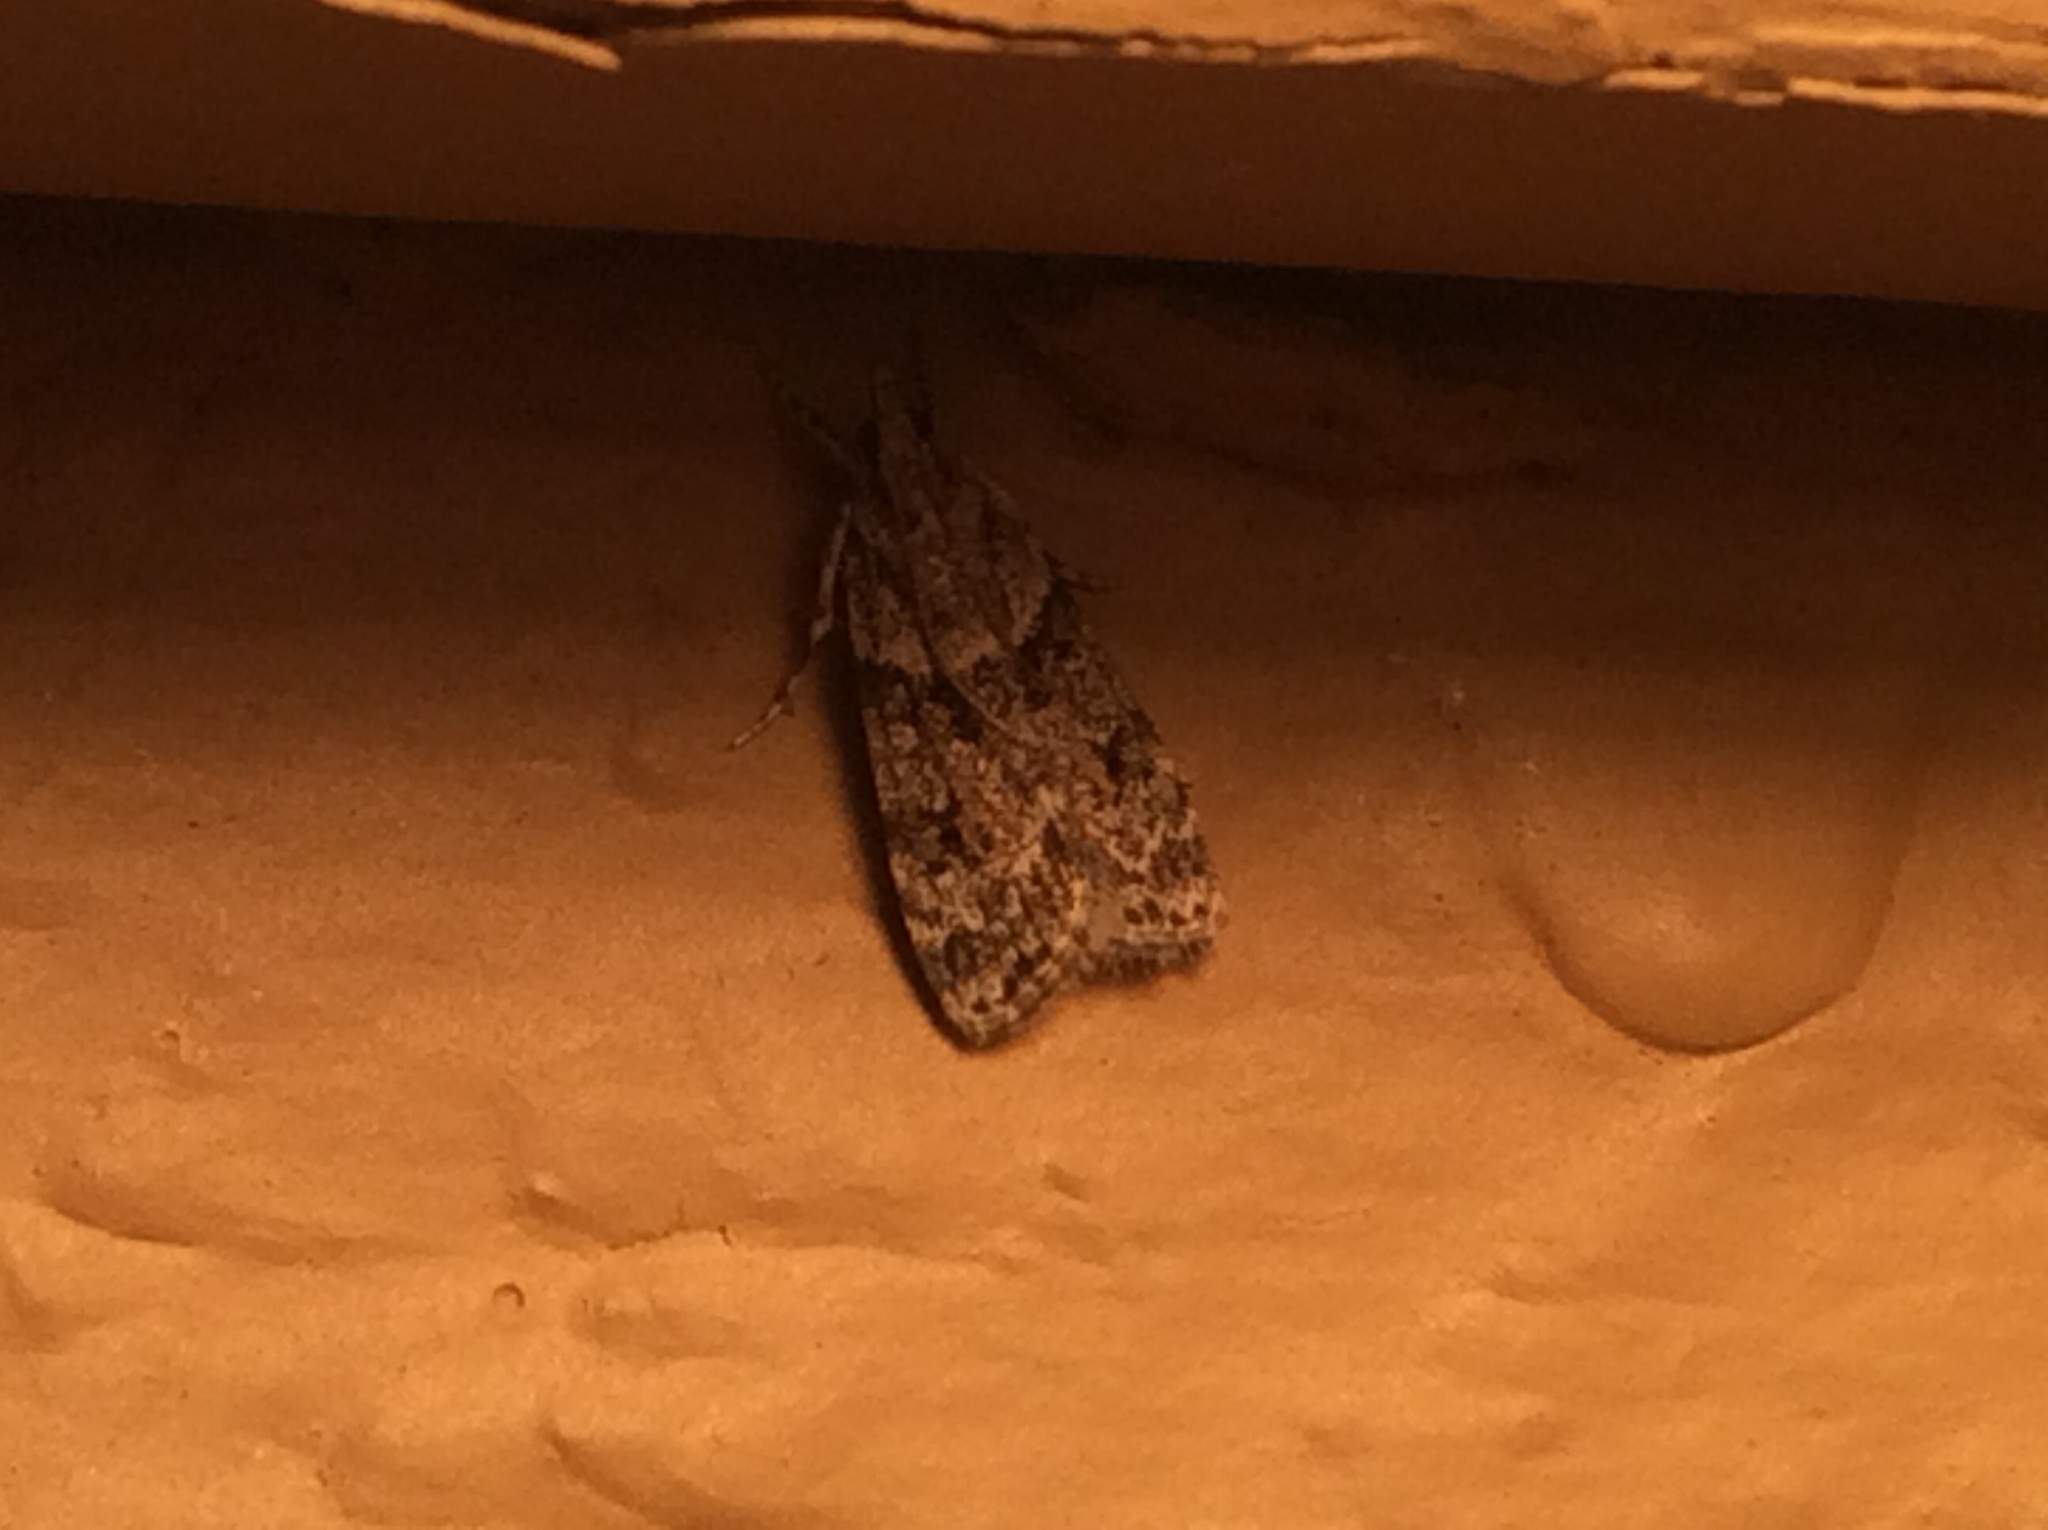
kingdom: Animalia
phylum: Arthropoda
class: Insecta
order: Lepidoptera
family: Crambidae
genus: Scoparia
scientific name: Scoparia biplagialis
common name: Double-striped scoparia moth
